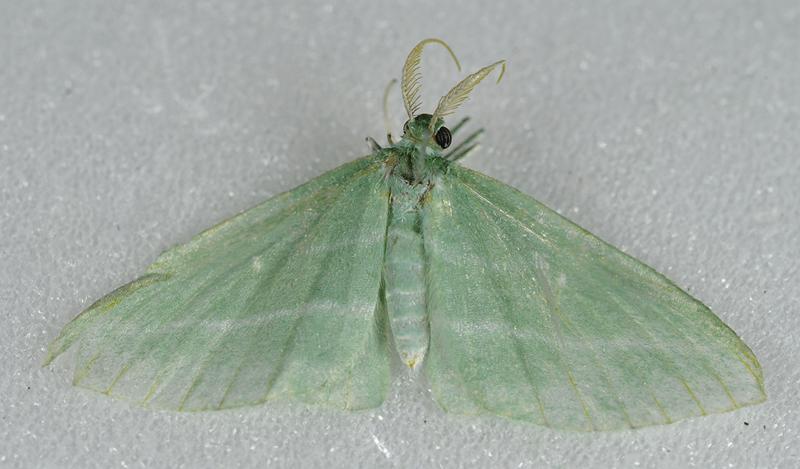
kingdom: Animalia
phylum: Arthropoda
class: Insecta
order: Lepidoptera
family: Geometridae
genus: Dyspteris
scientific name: Dyspteris abortivaria
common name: Bad-wing
